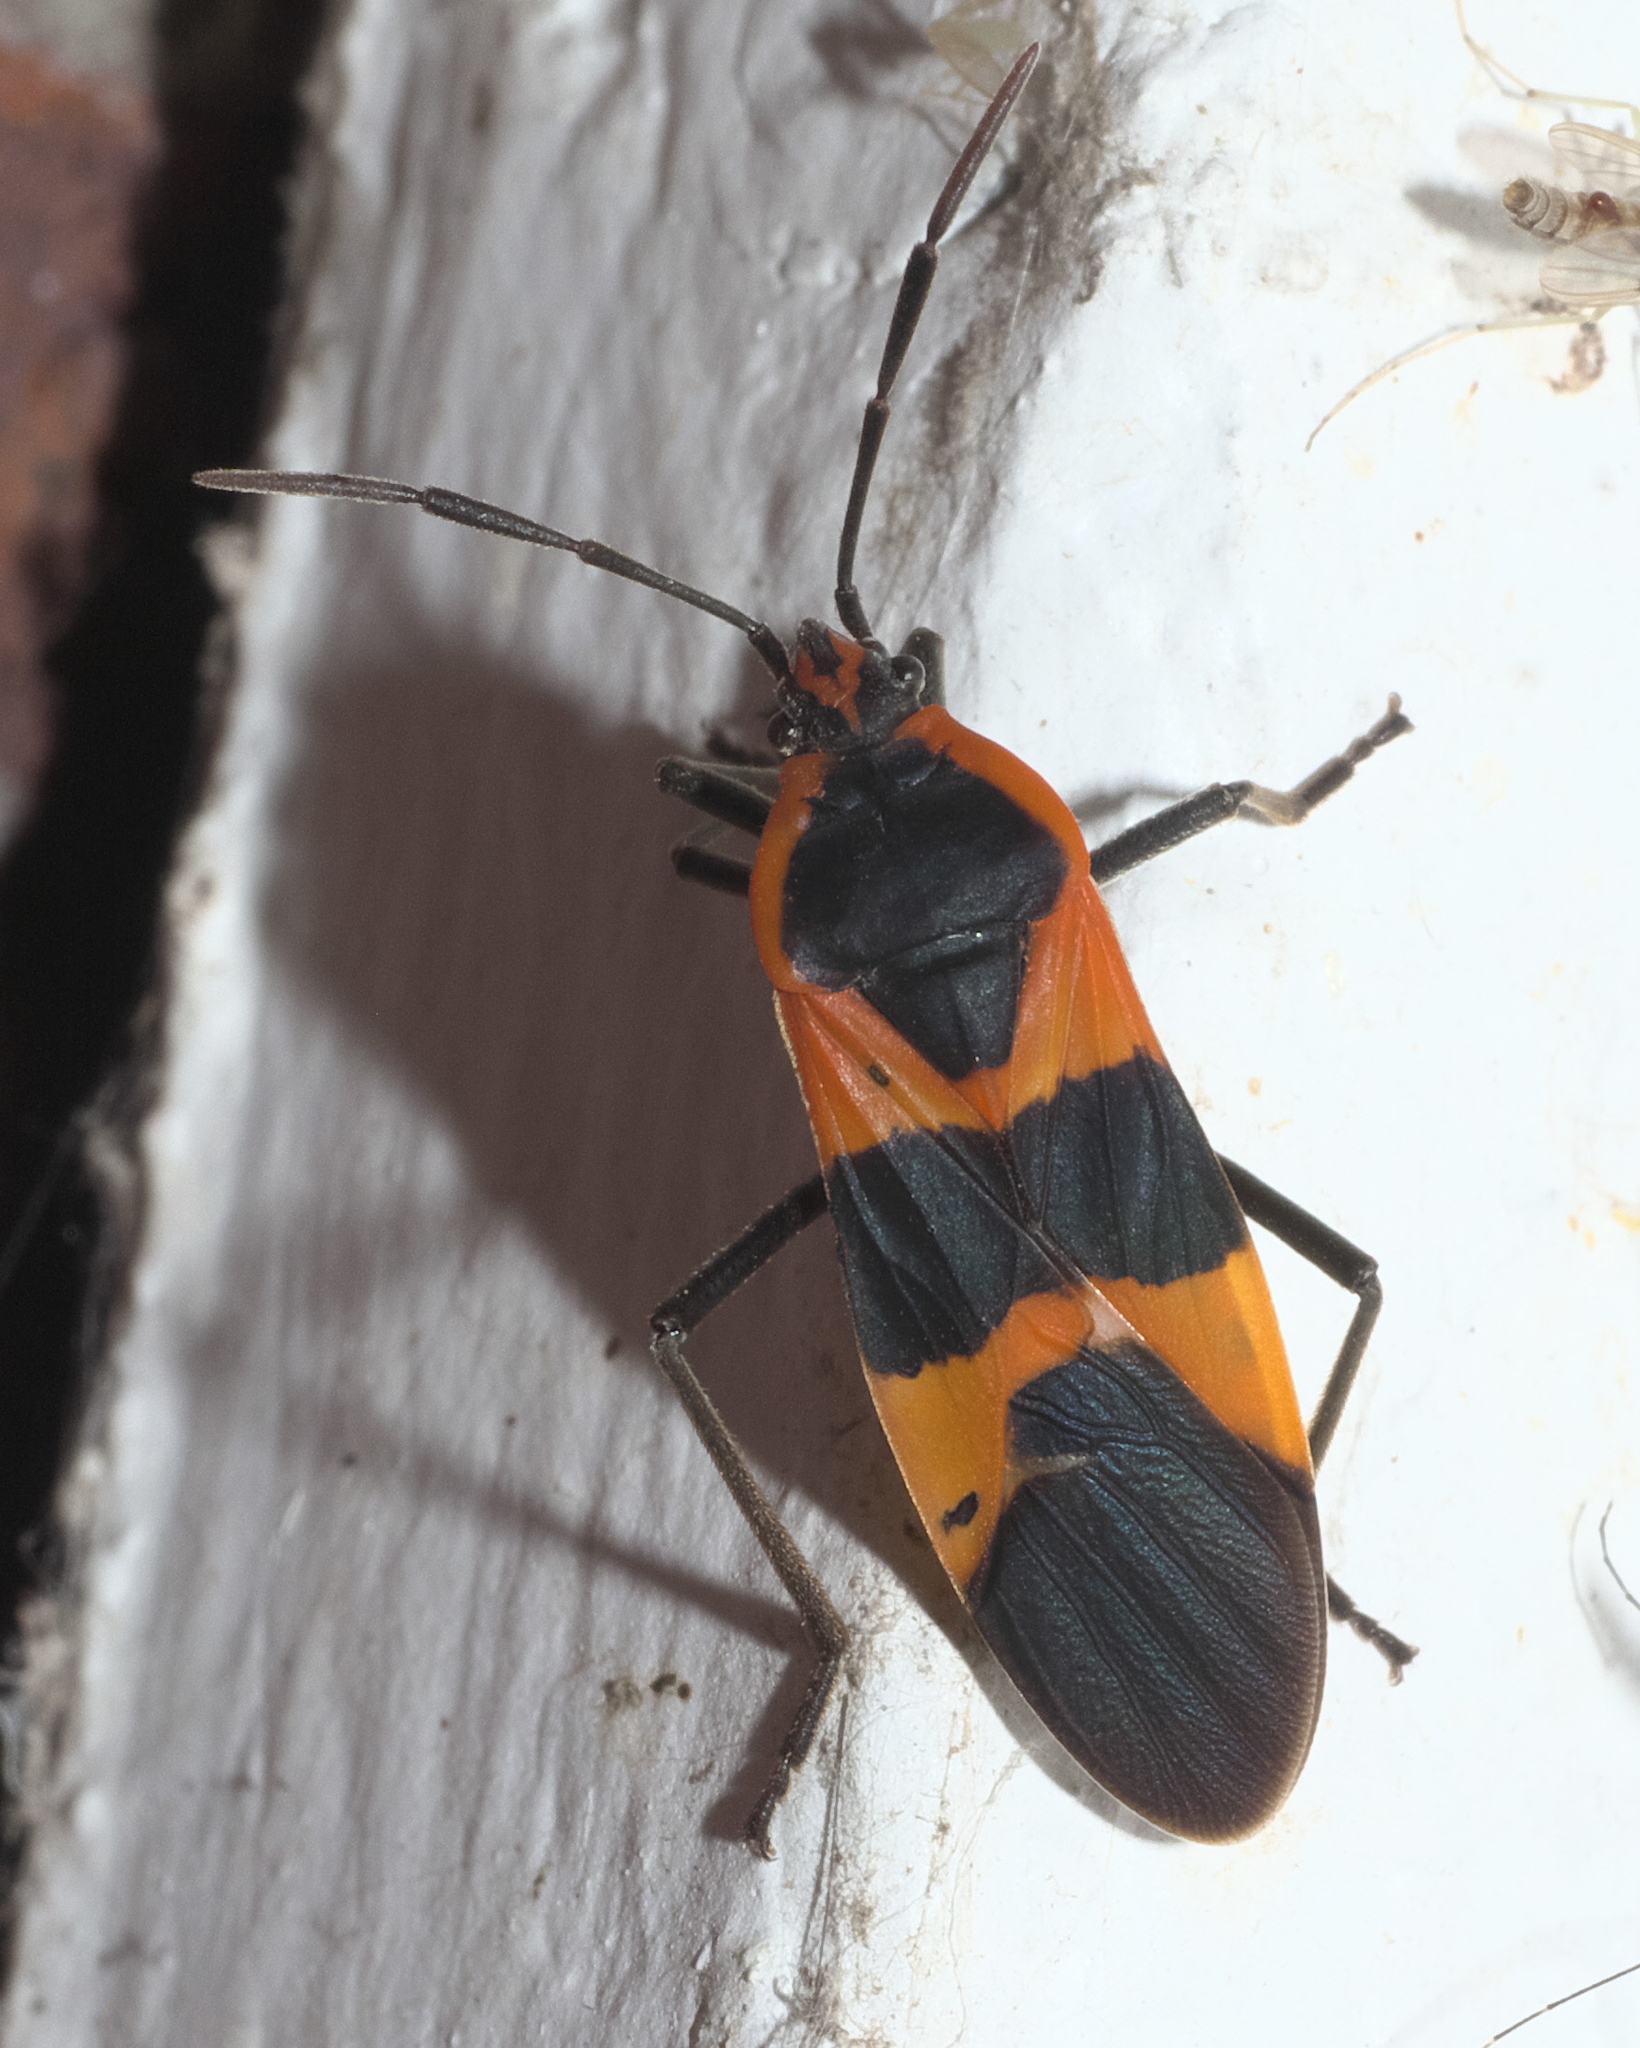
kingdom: Animalia
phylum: Arthropoda
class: Insecta
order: Hemiptera
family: Lygaeidae
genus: Oncopeltus
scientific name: Oncopeltus fasciatus
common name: Large milkweed bug
